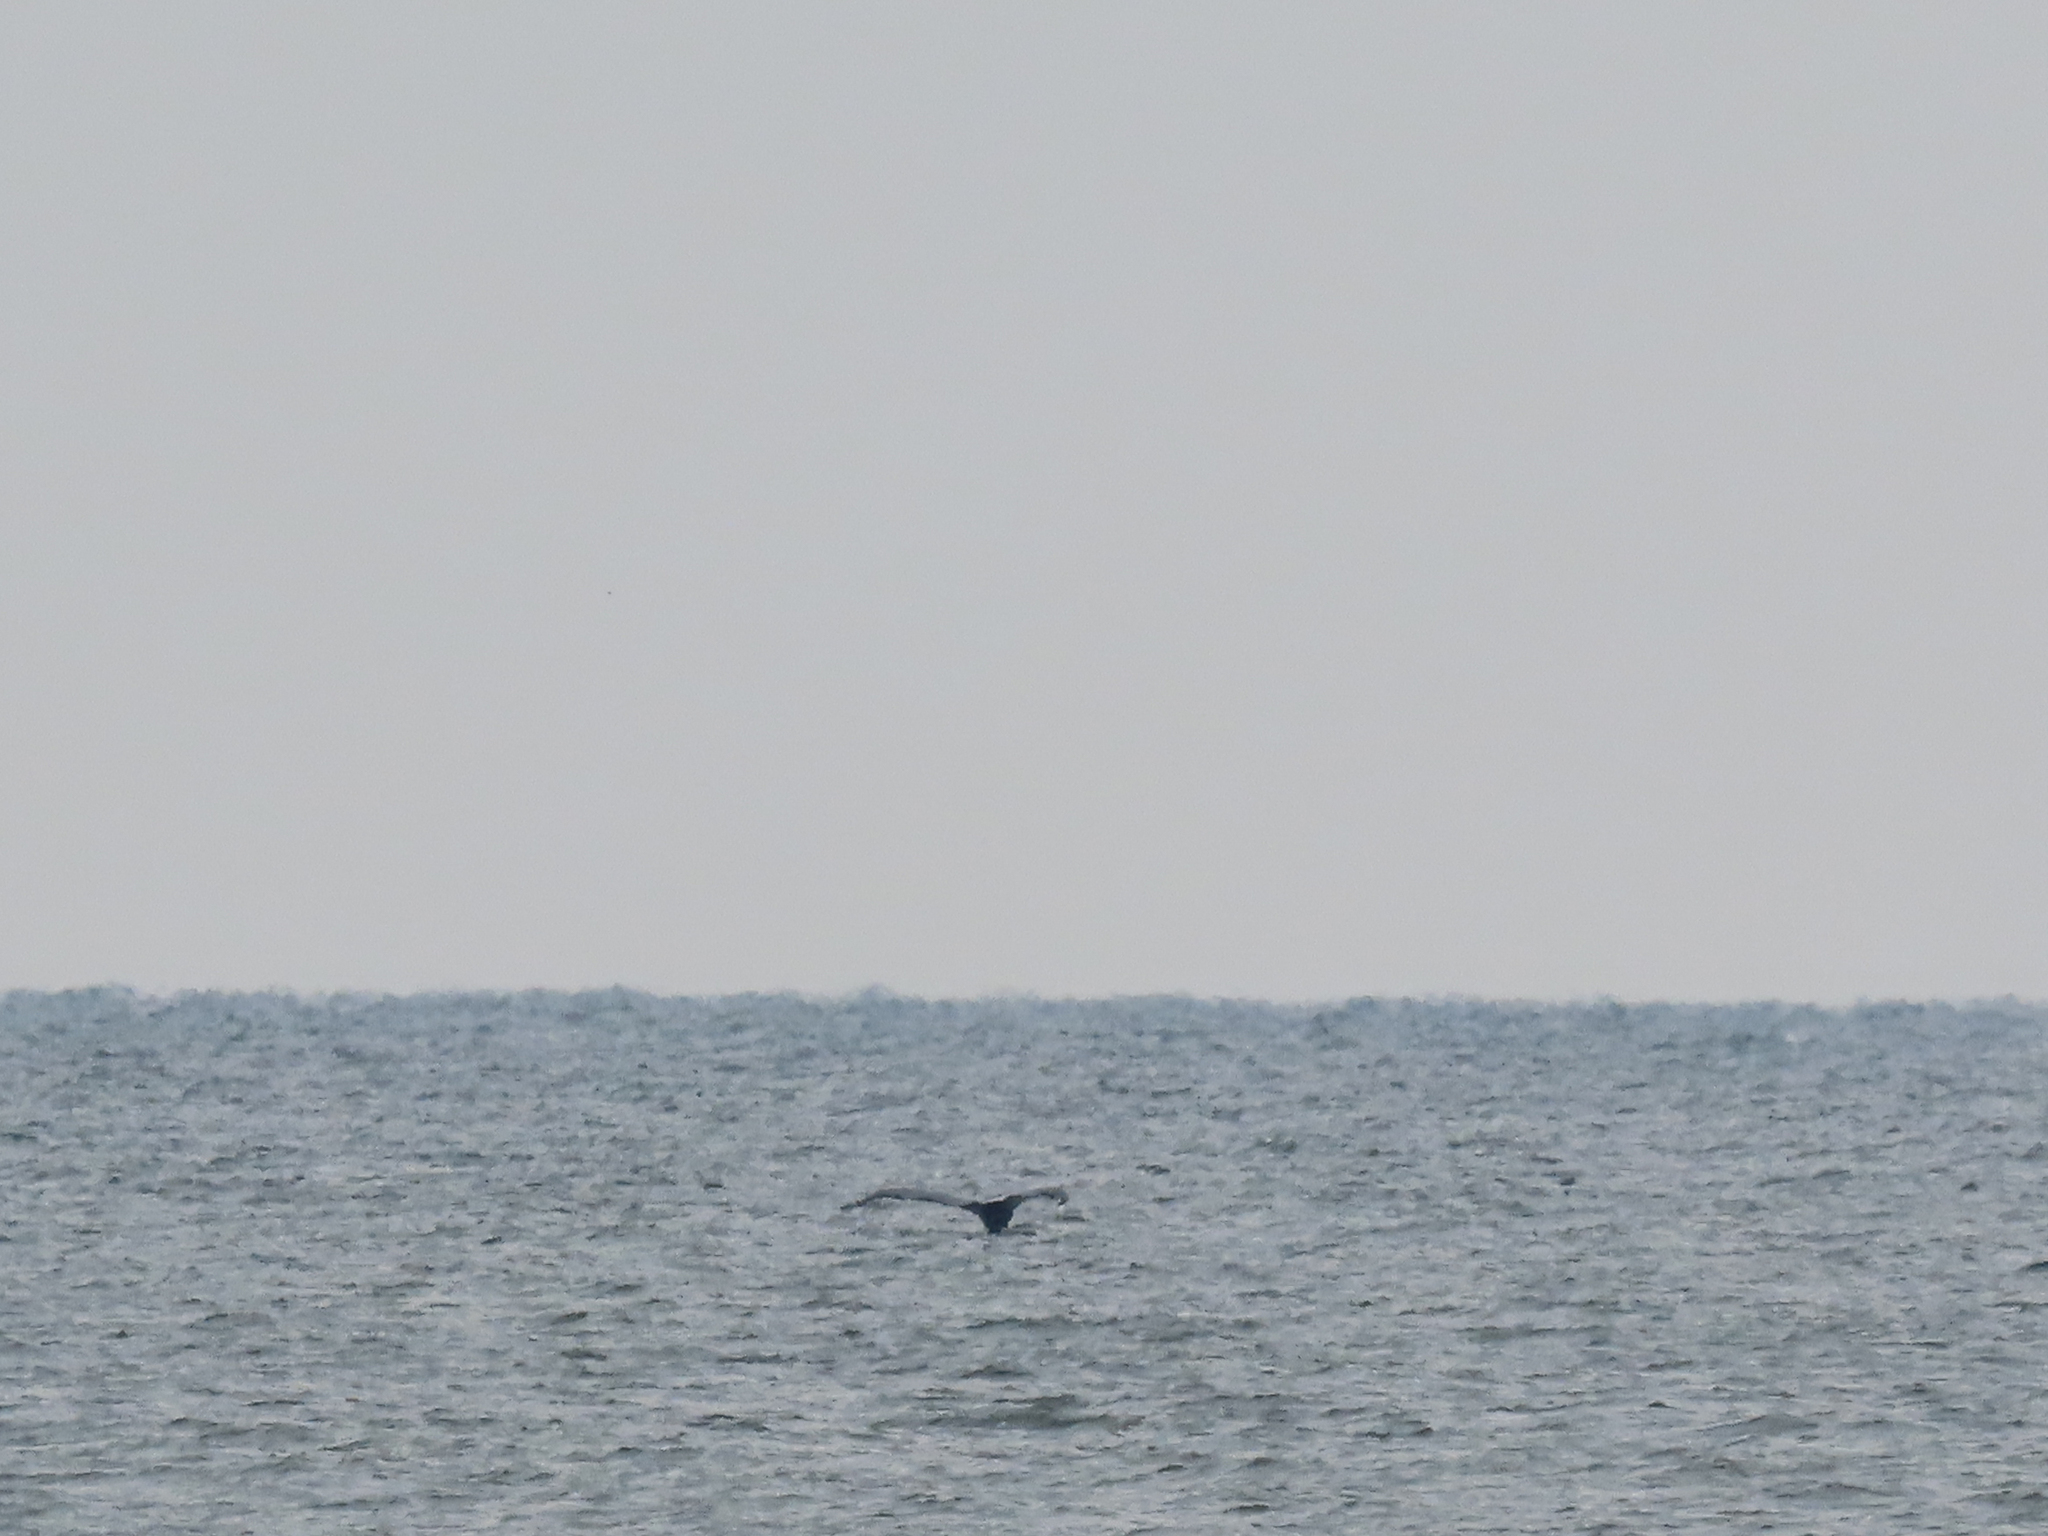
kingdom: Animalia
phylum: Chordata
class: Mammalia
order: Cetacea
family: Balaenopteridae
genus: Megaptera
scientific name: Megaptera novaeangliae
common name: Humpback whale
